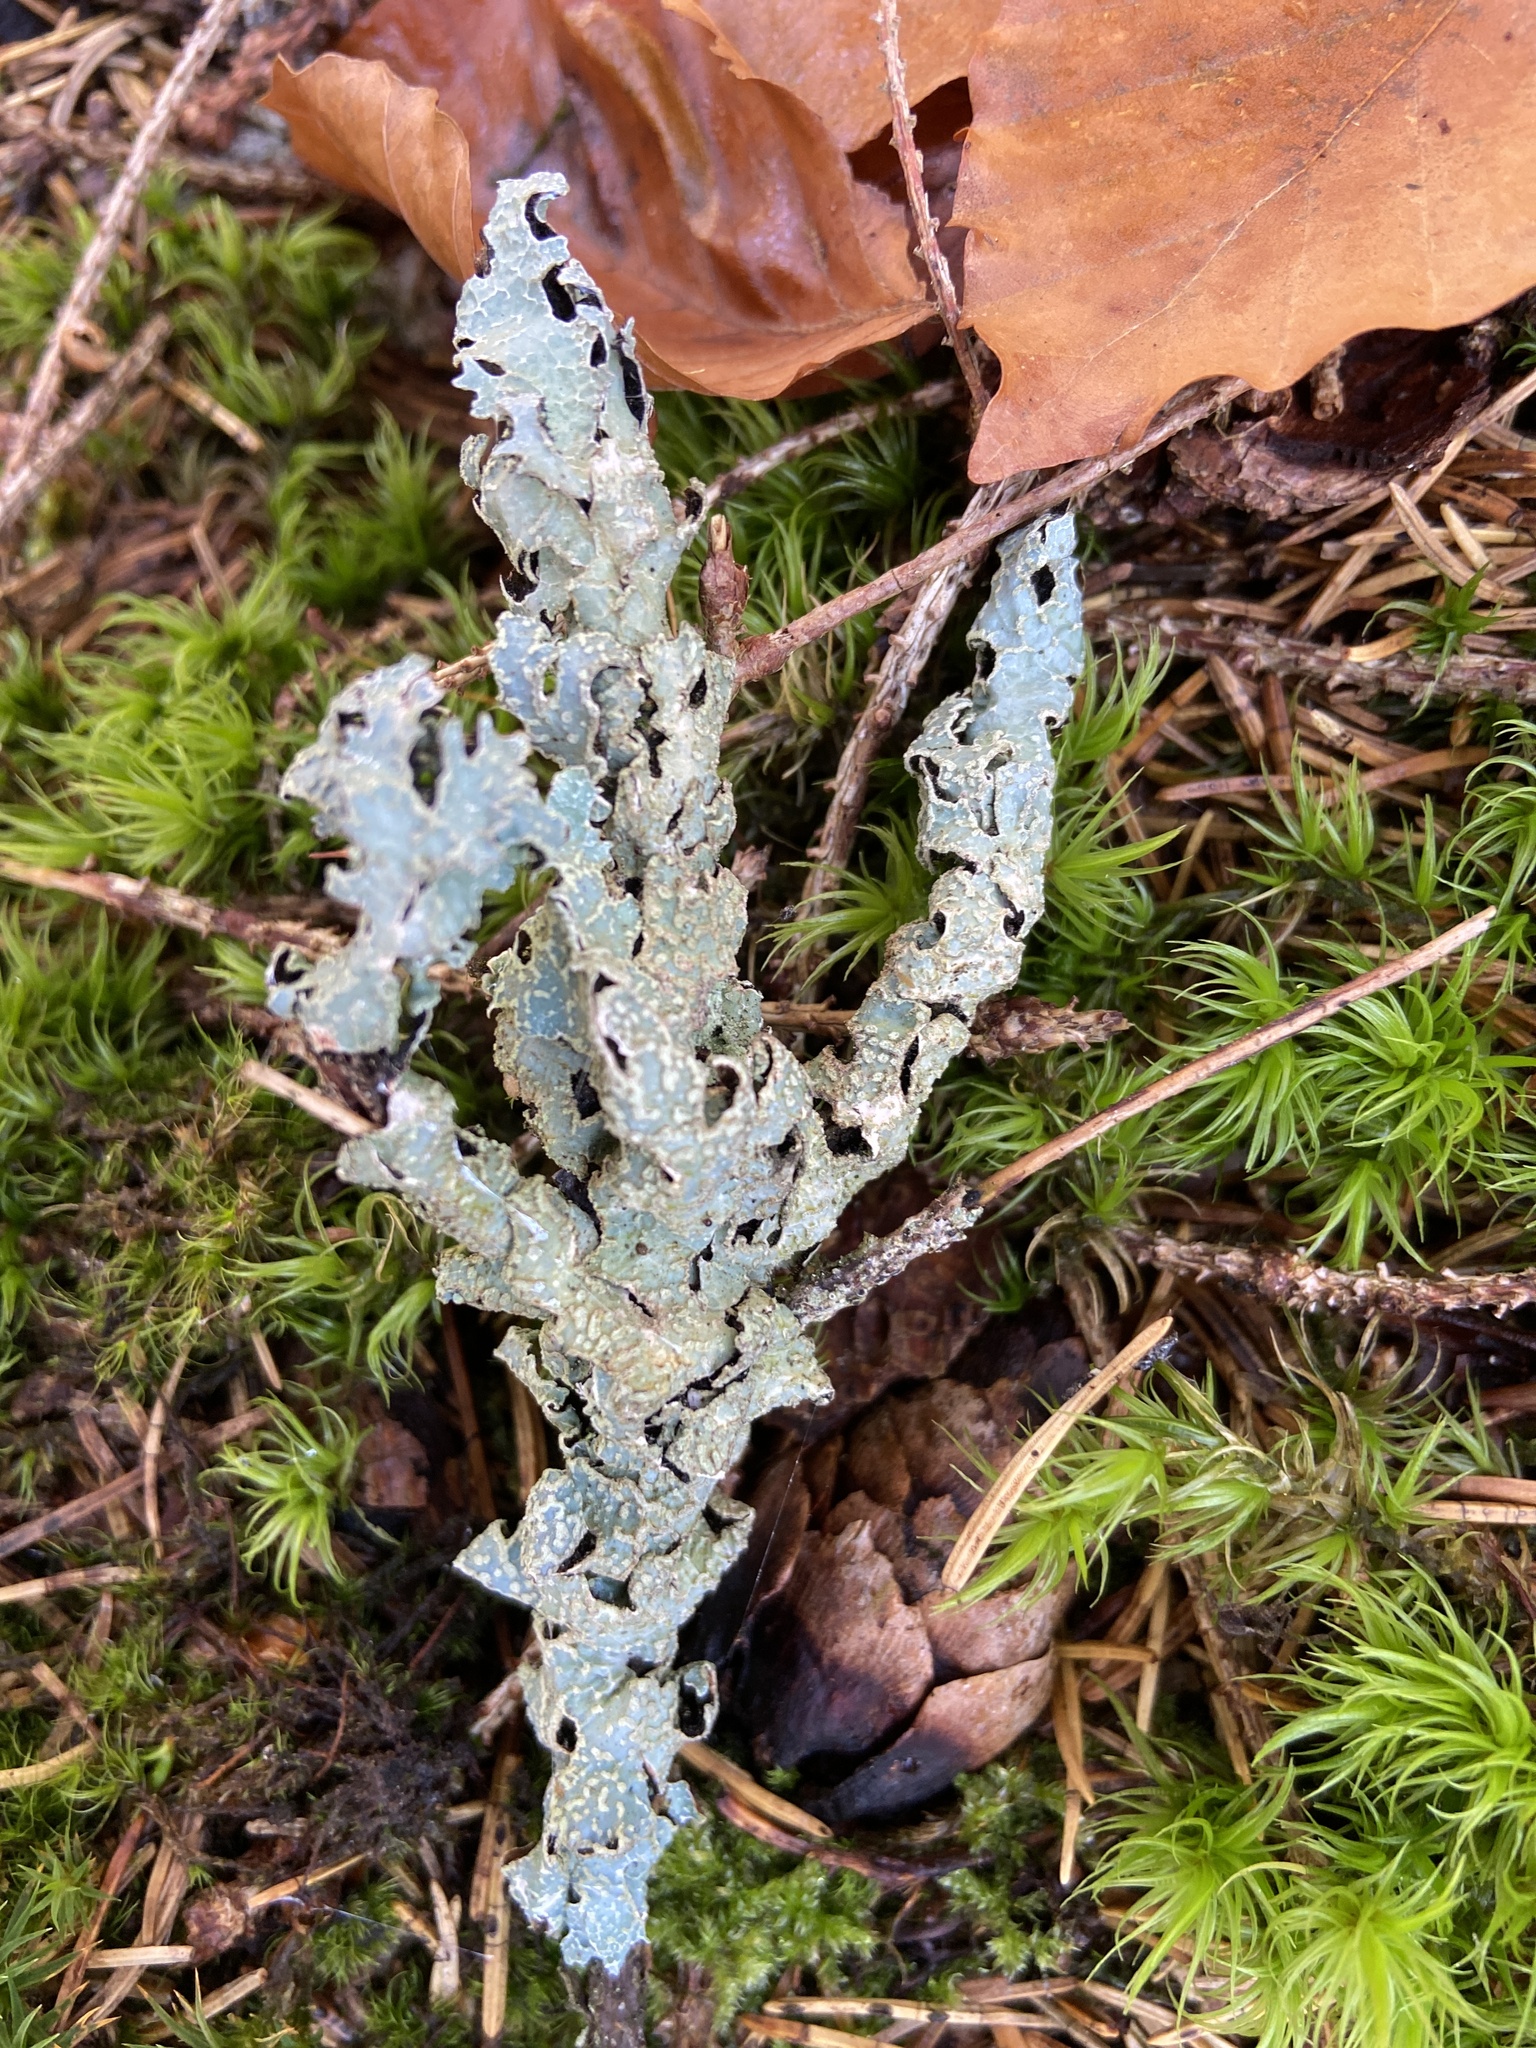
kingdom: Fungi
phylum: Ascomycota
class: Lecanoromycetes
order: Lecanorales
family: Parmeliaceae
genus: Parmelia
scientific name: Parmelia sulcata
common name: Netted shield lichen
